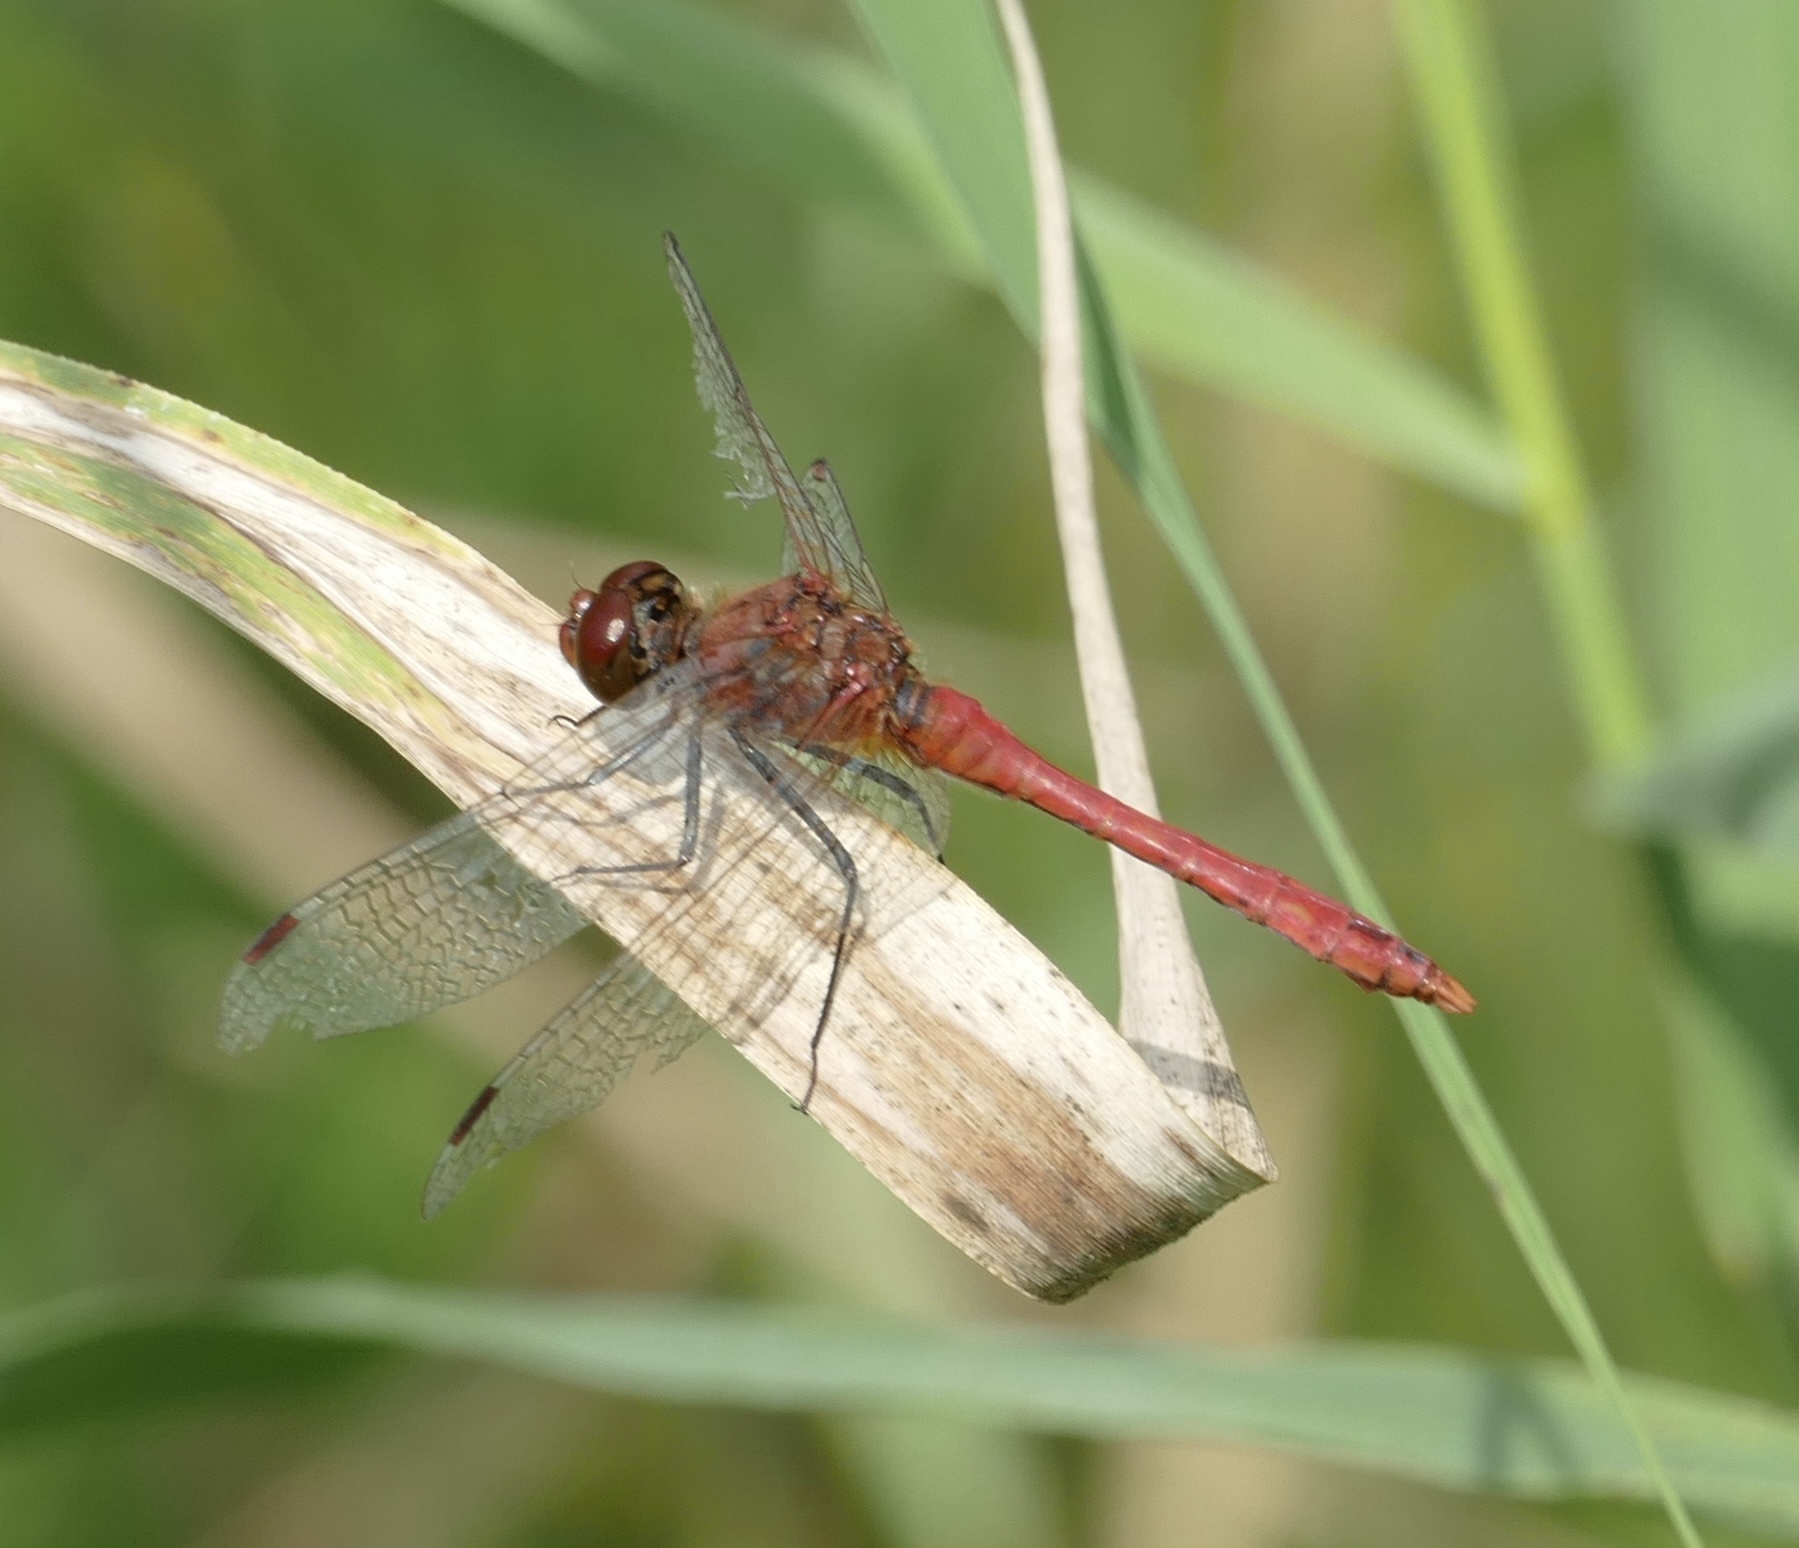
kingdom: Animalia
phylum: Arthropoda
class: Insecta
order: Odonata
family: Libellulidae
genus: Sympetrum
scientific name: Sympetrum sanguineum
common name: Ruddy darter
